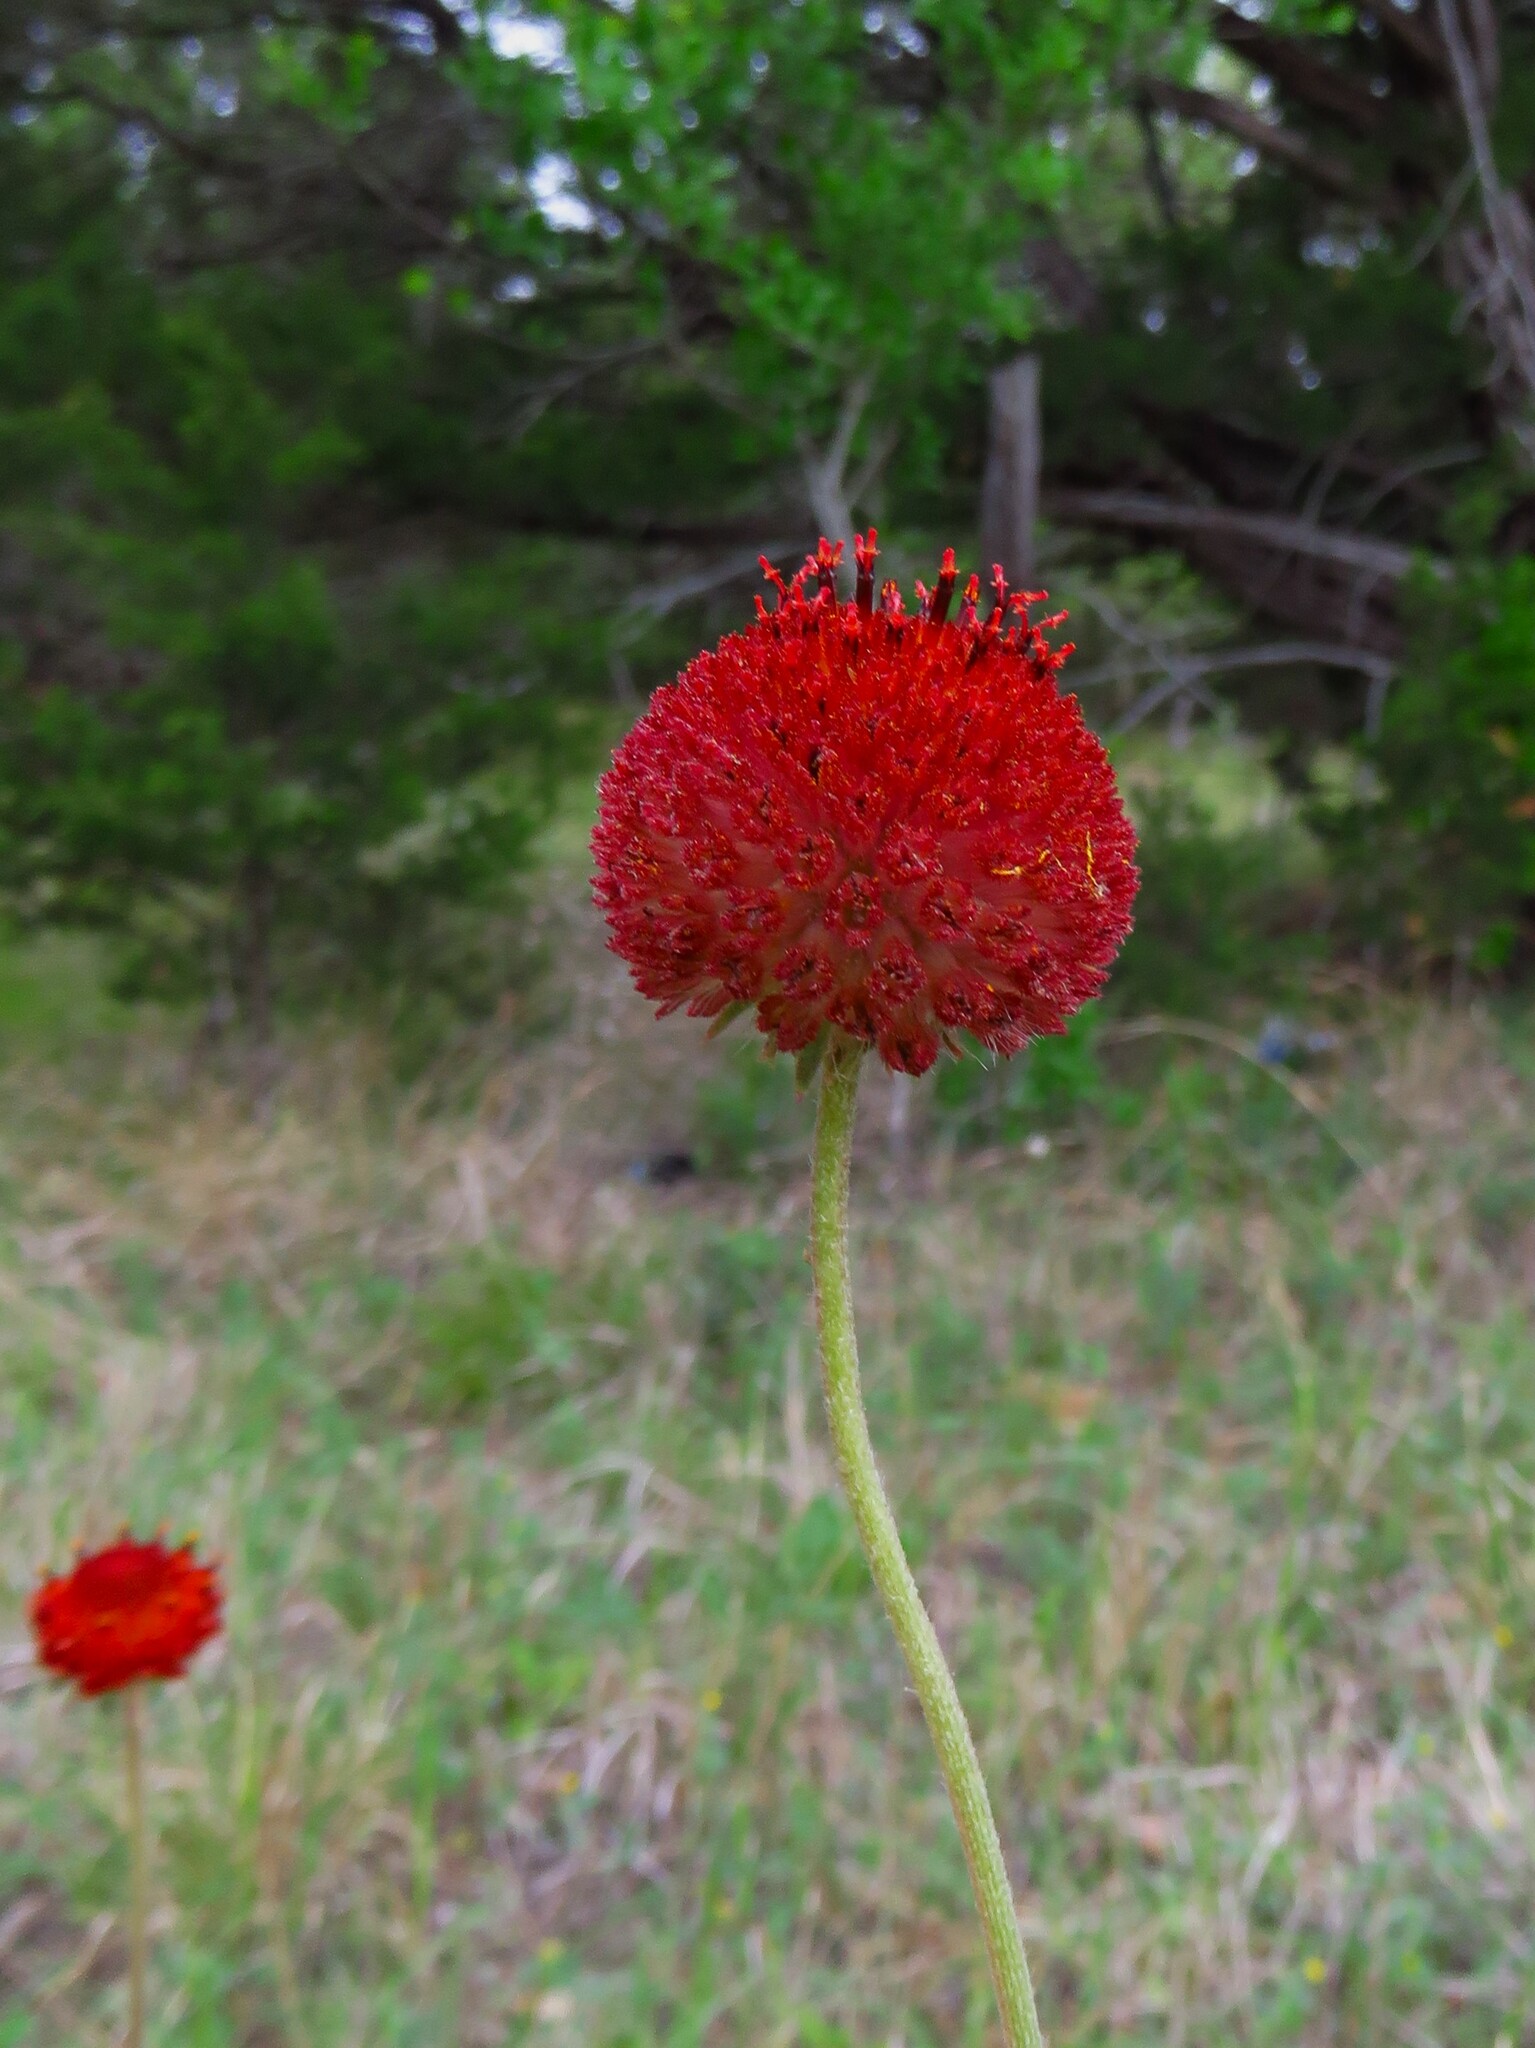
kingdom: Plantae
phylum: Tracheophyta
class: Magnoliopsida
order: Asterales
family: Asteraceae
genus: Gaillardia
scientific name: Gaillardia suavis
